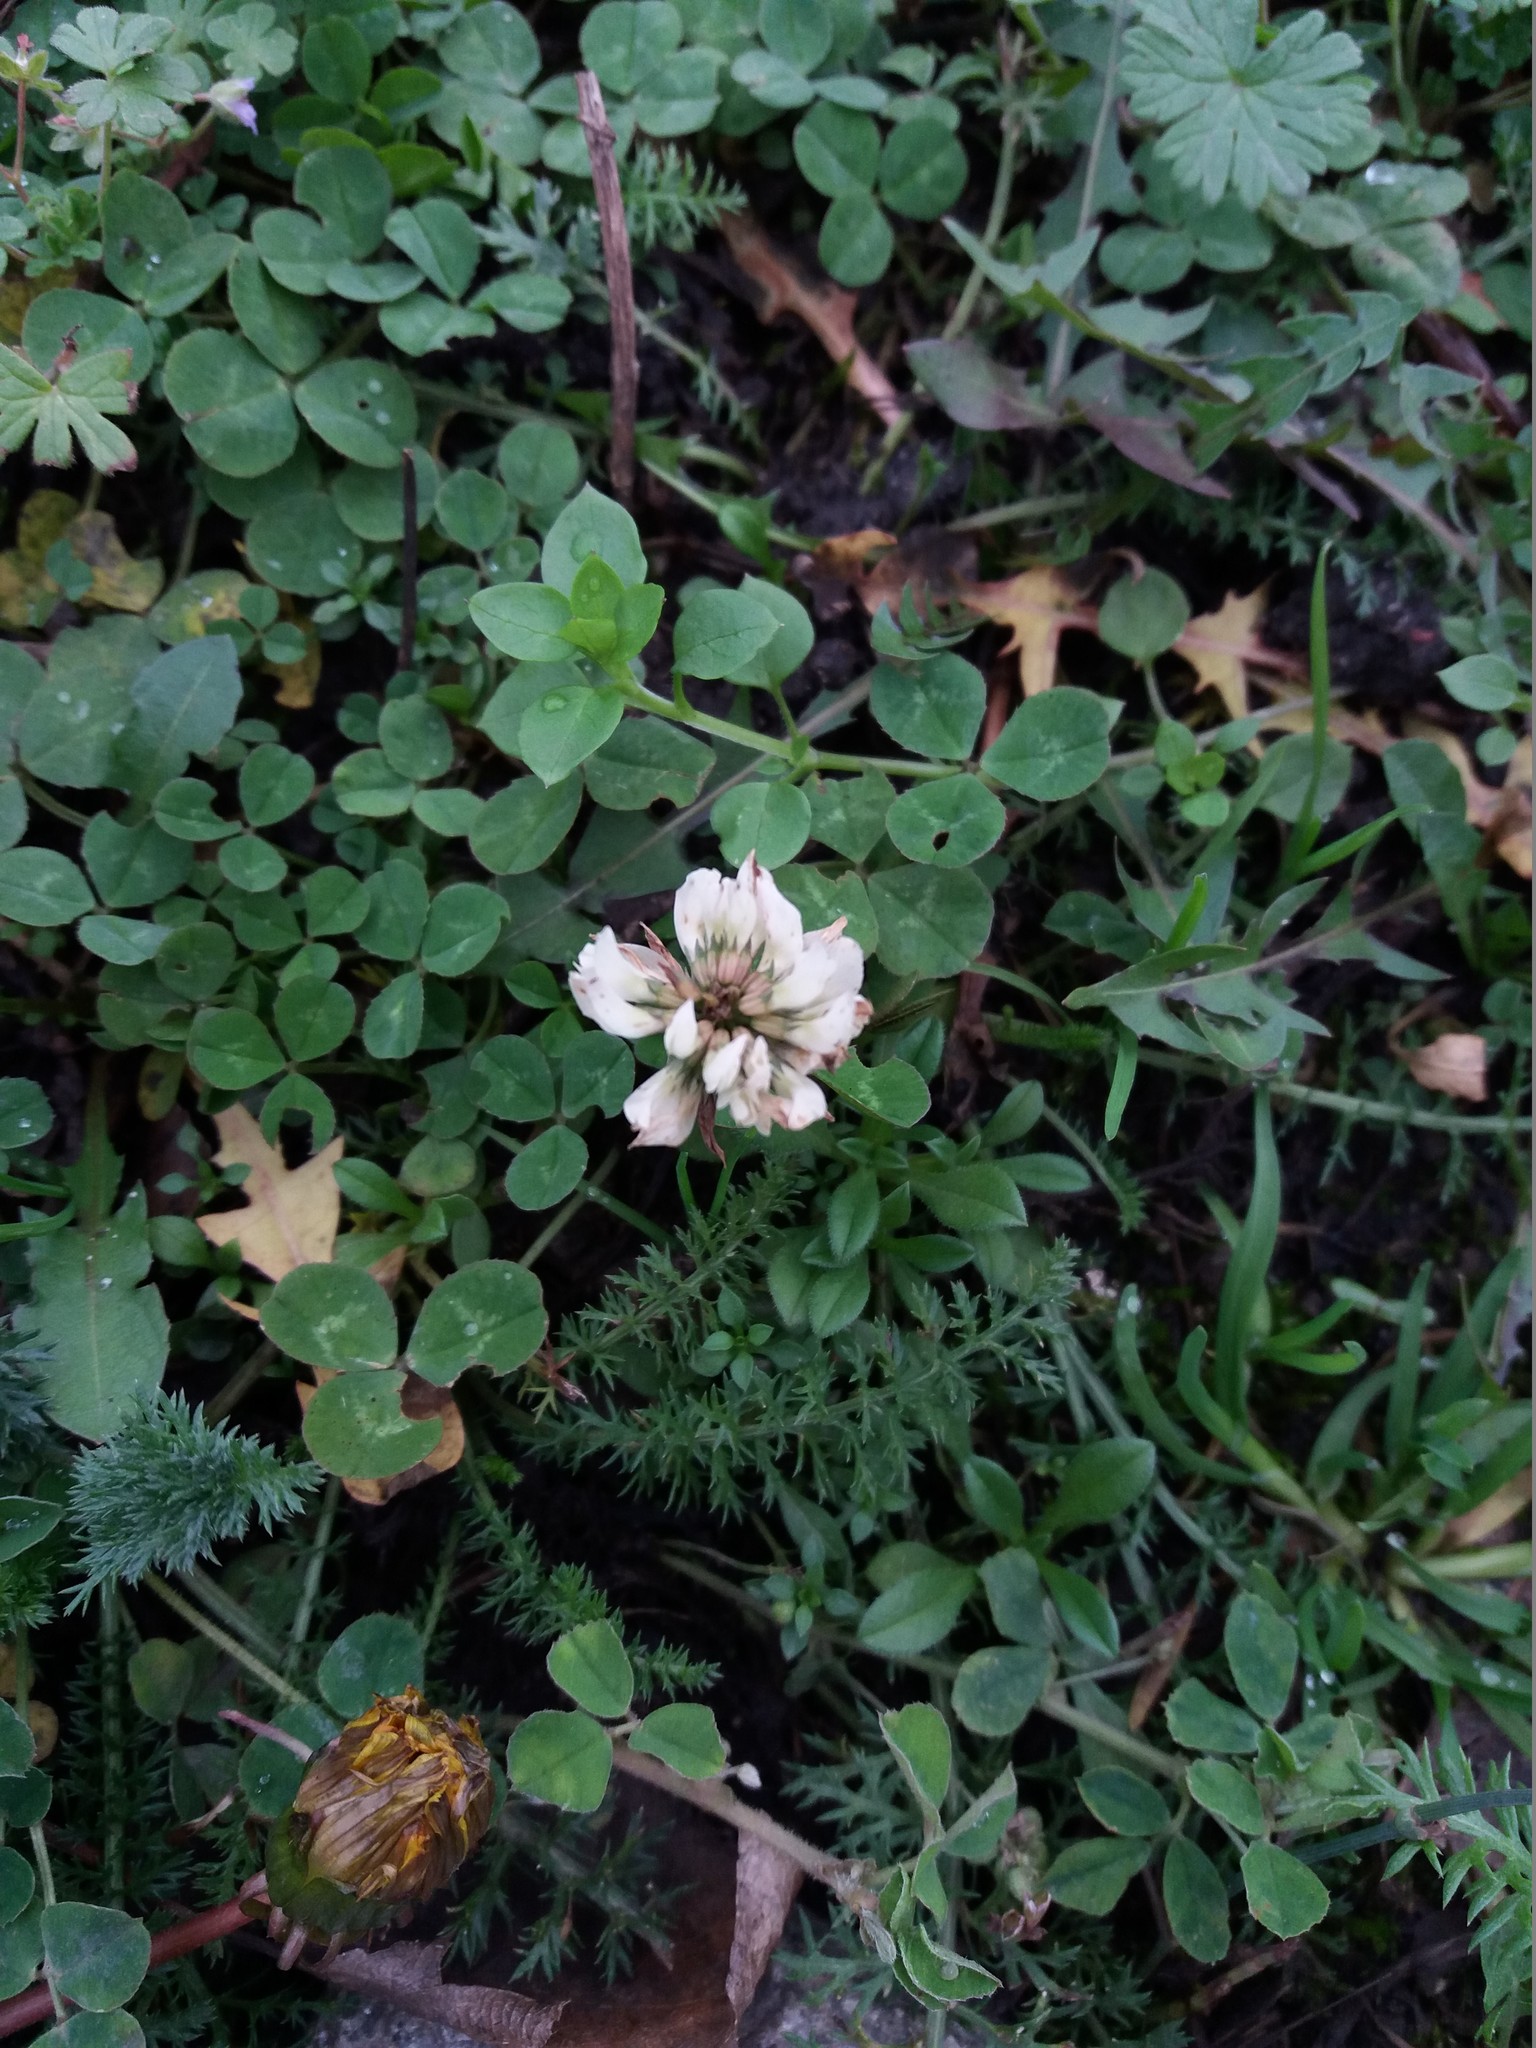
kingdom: Plantae
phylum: Tracheophyta
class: Magnoliopsida
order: Fabales
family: Fabaceae
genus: Trifolium
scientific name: Trifolium repens
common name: White clover
